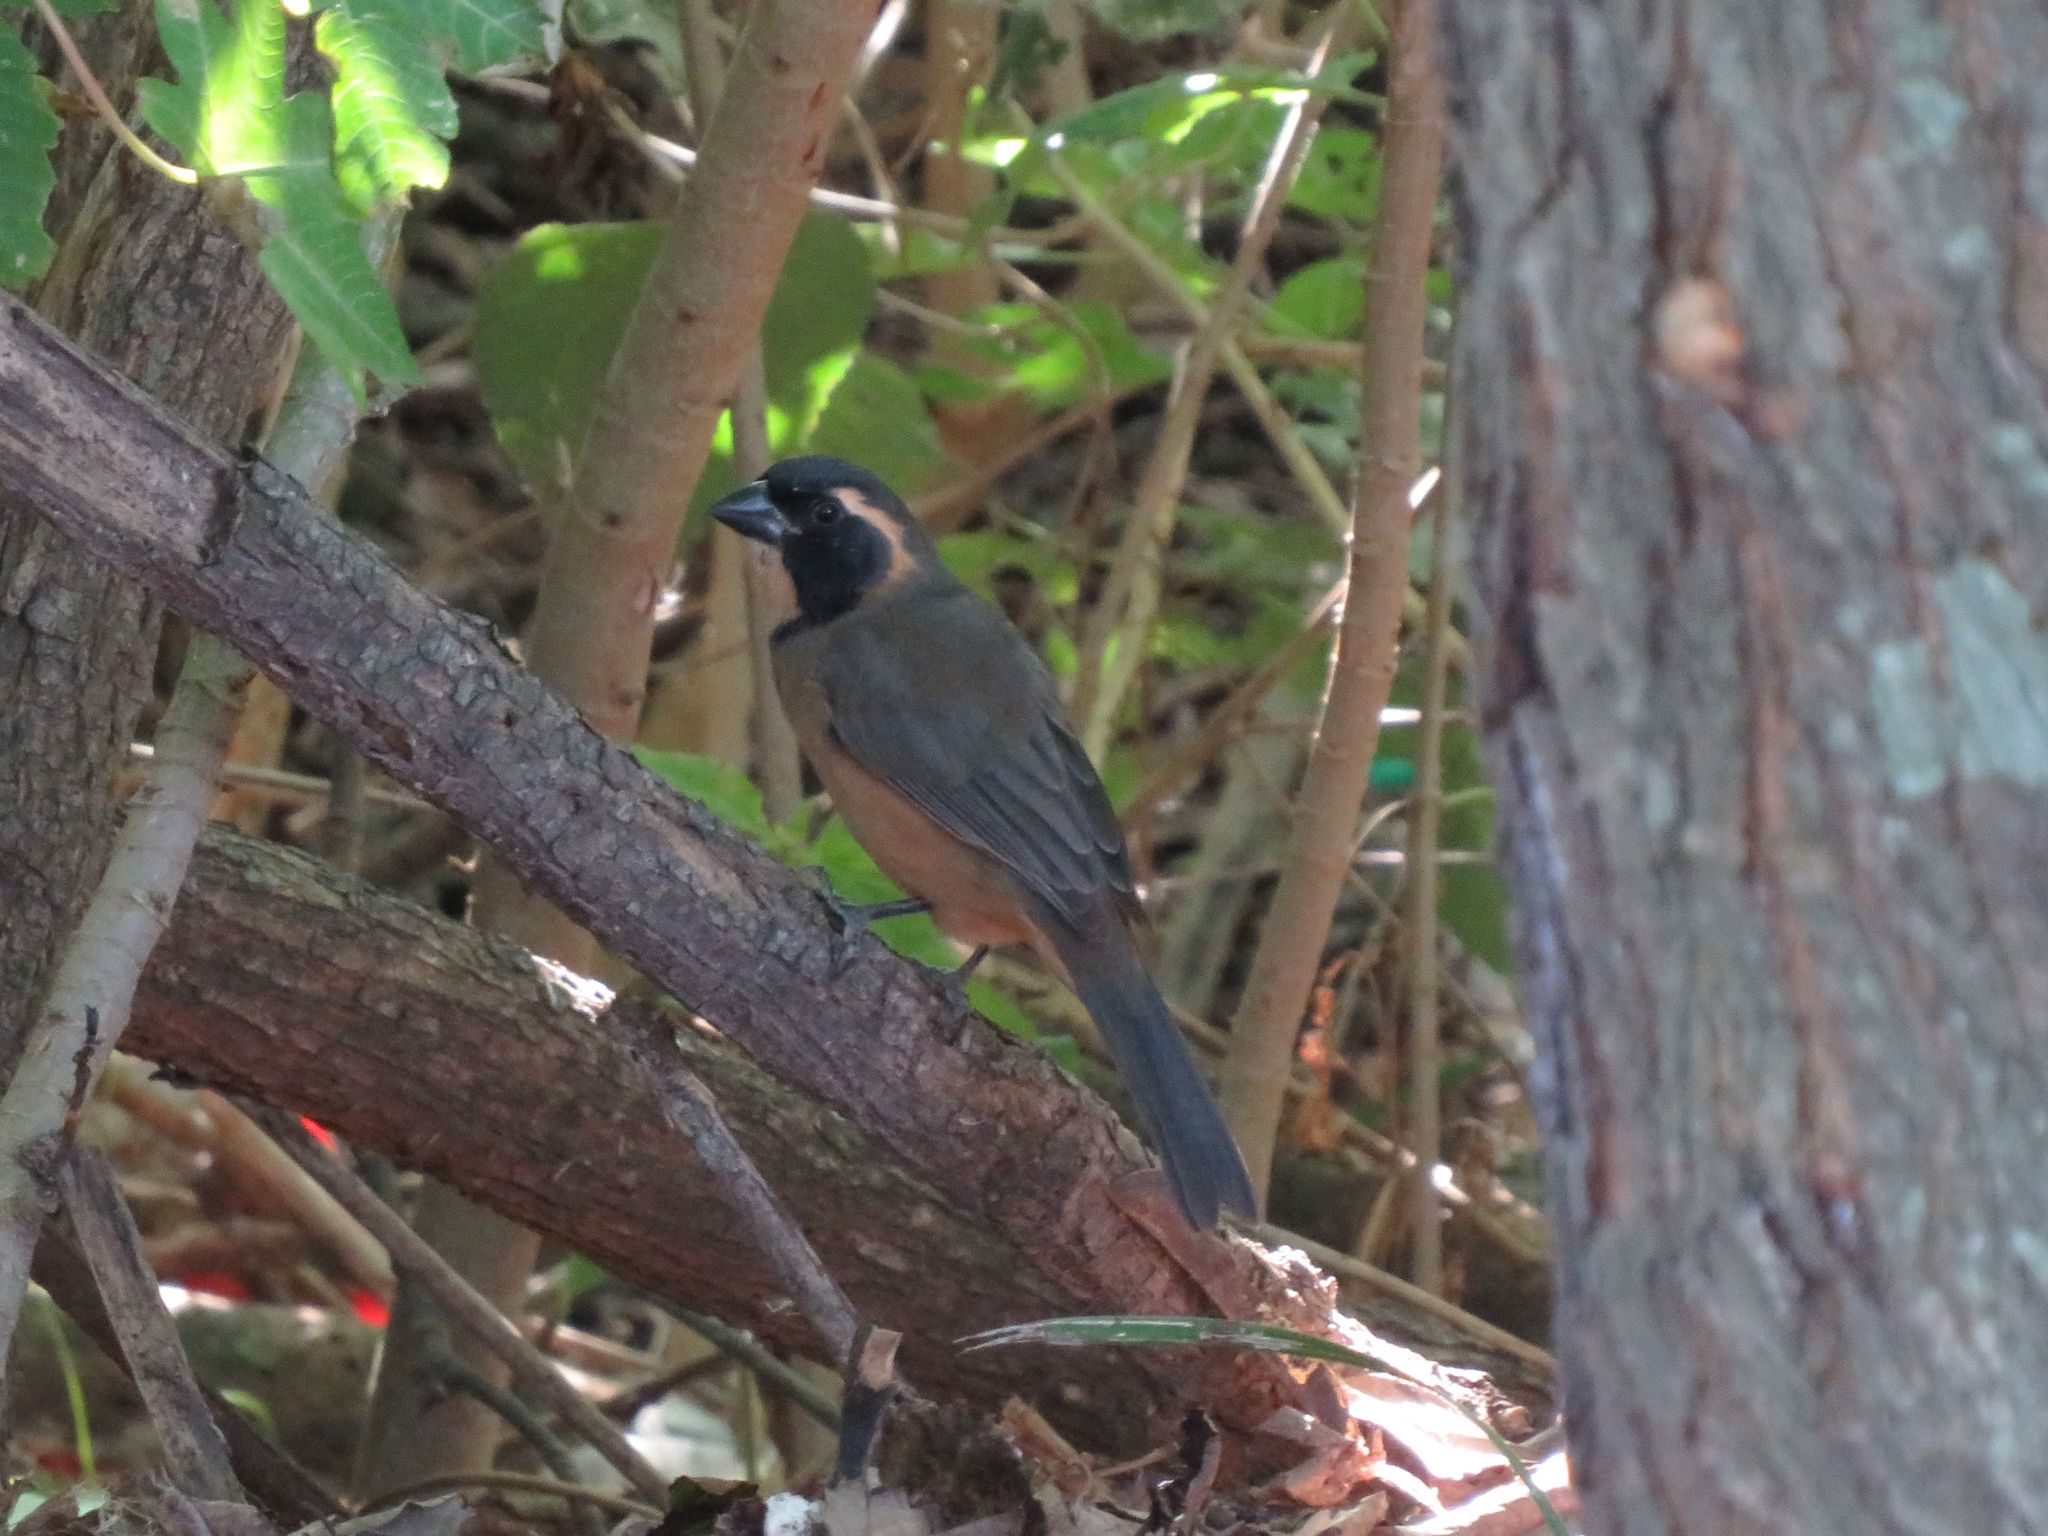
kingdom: Animalia
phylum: Chordata
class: Aves
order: Passeriformes
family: Thraupidae
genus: Saltator
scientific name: Saltator aurantiirostris
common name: Golden-billed saltator
